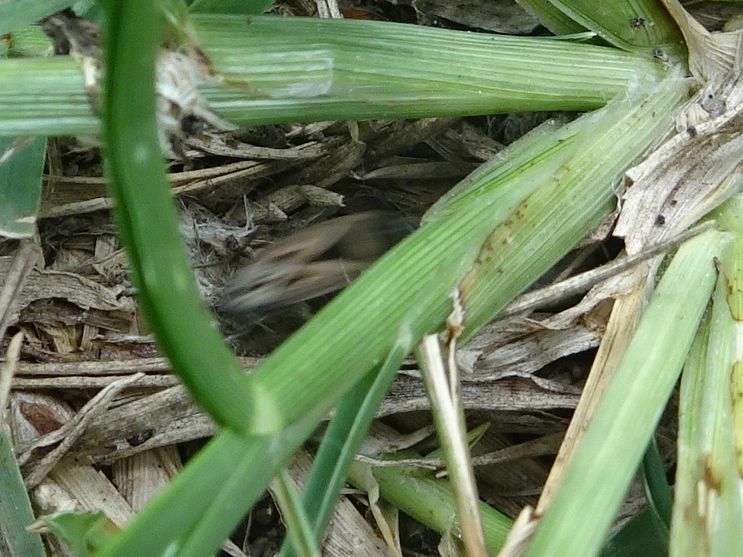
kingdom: Animalia
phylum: Arthropoda
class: Insecta
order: Hemiptera
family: Rhyparochromidae
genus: Xanthochilus
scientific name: Xanthochilus quadratus
